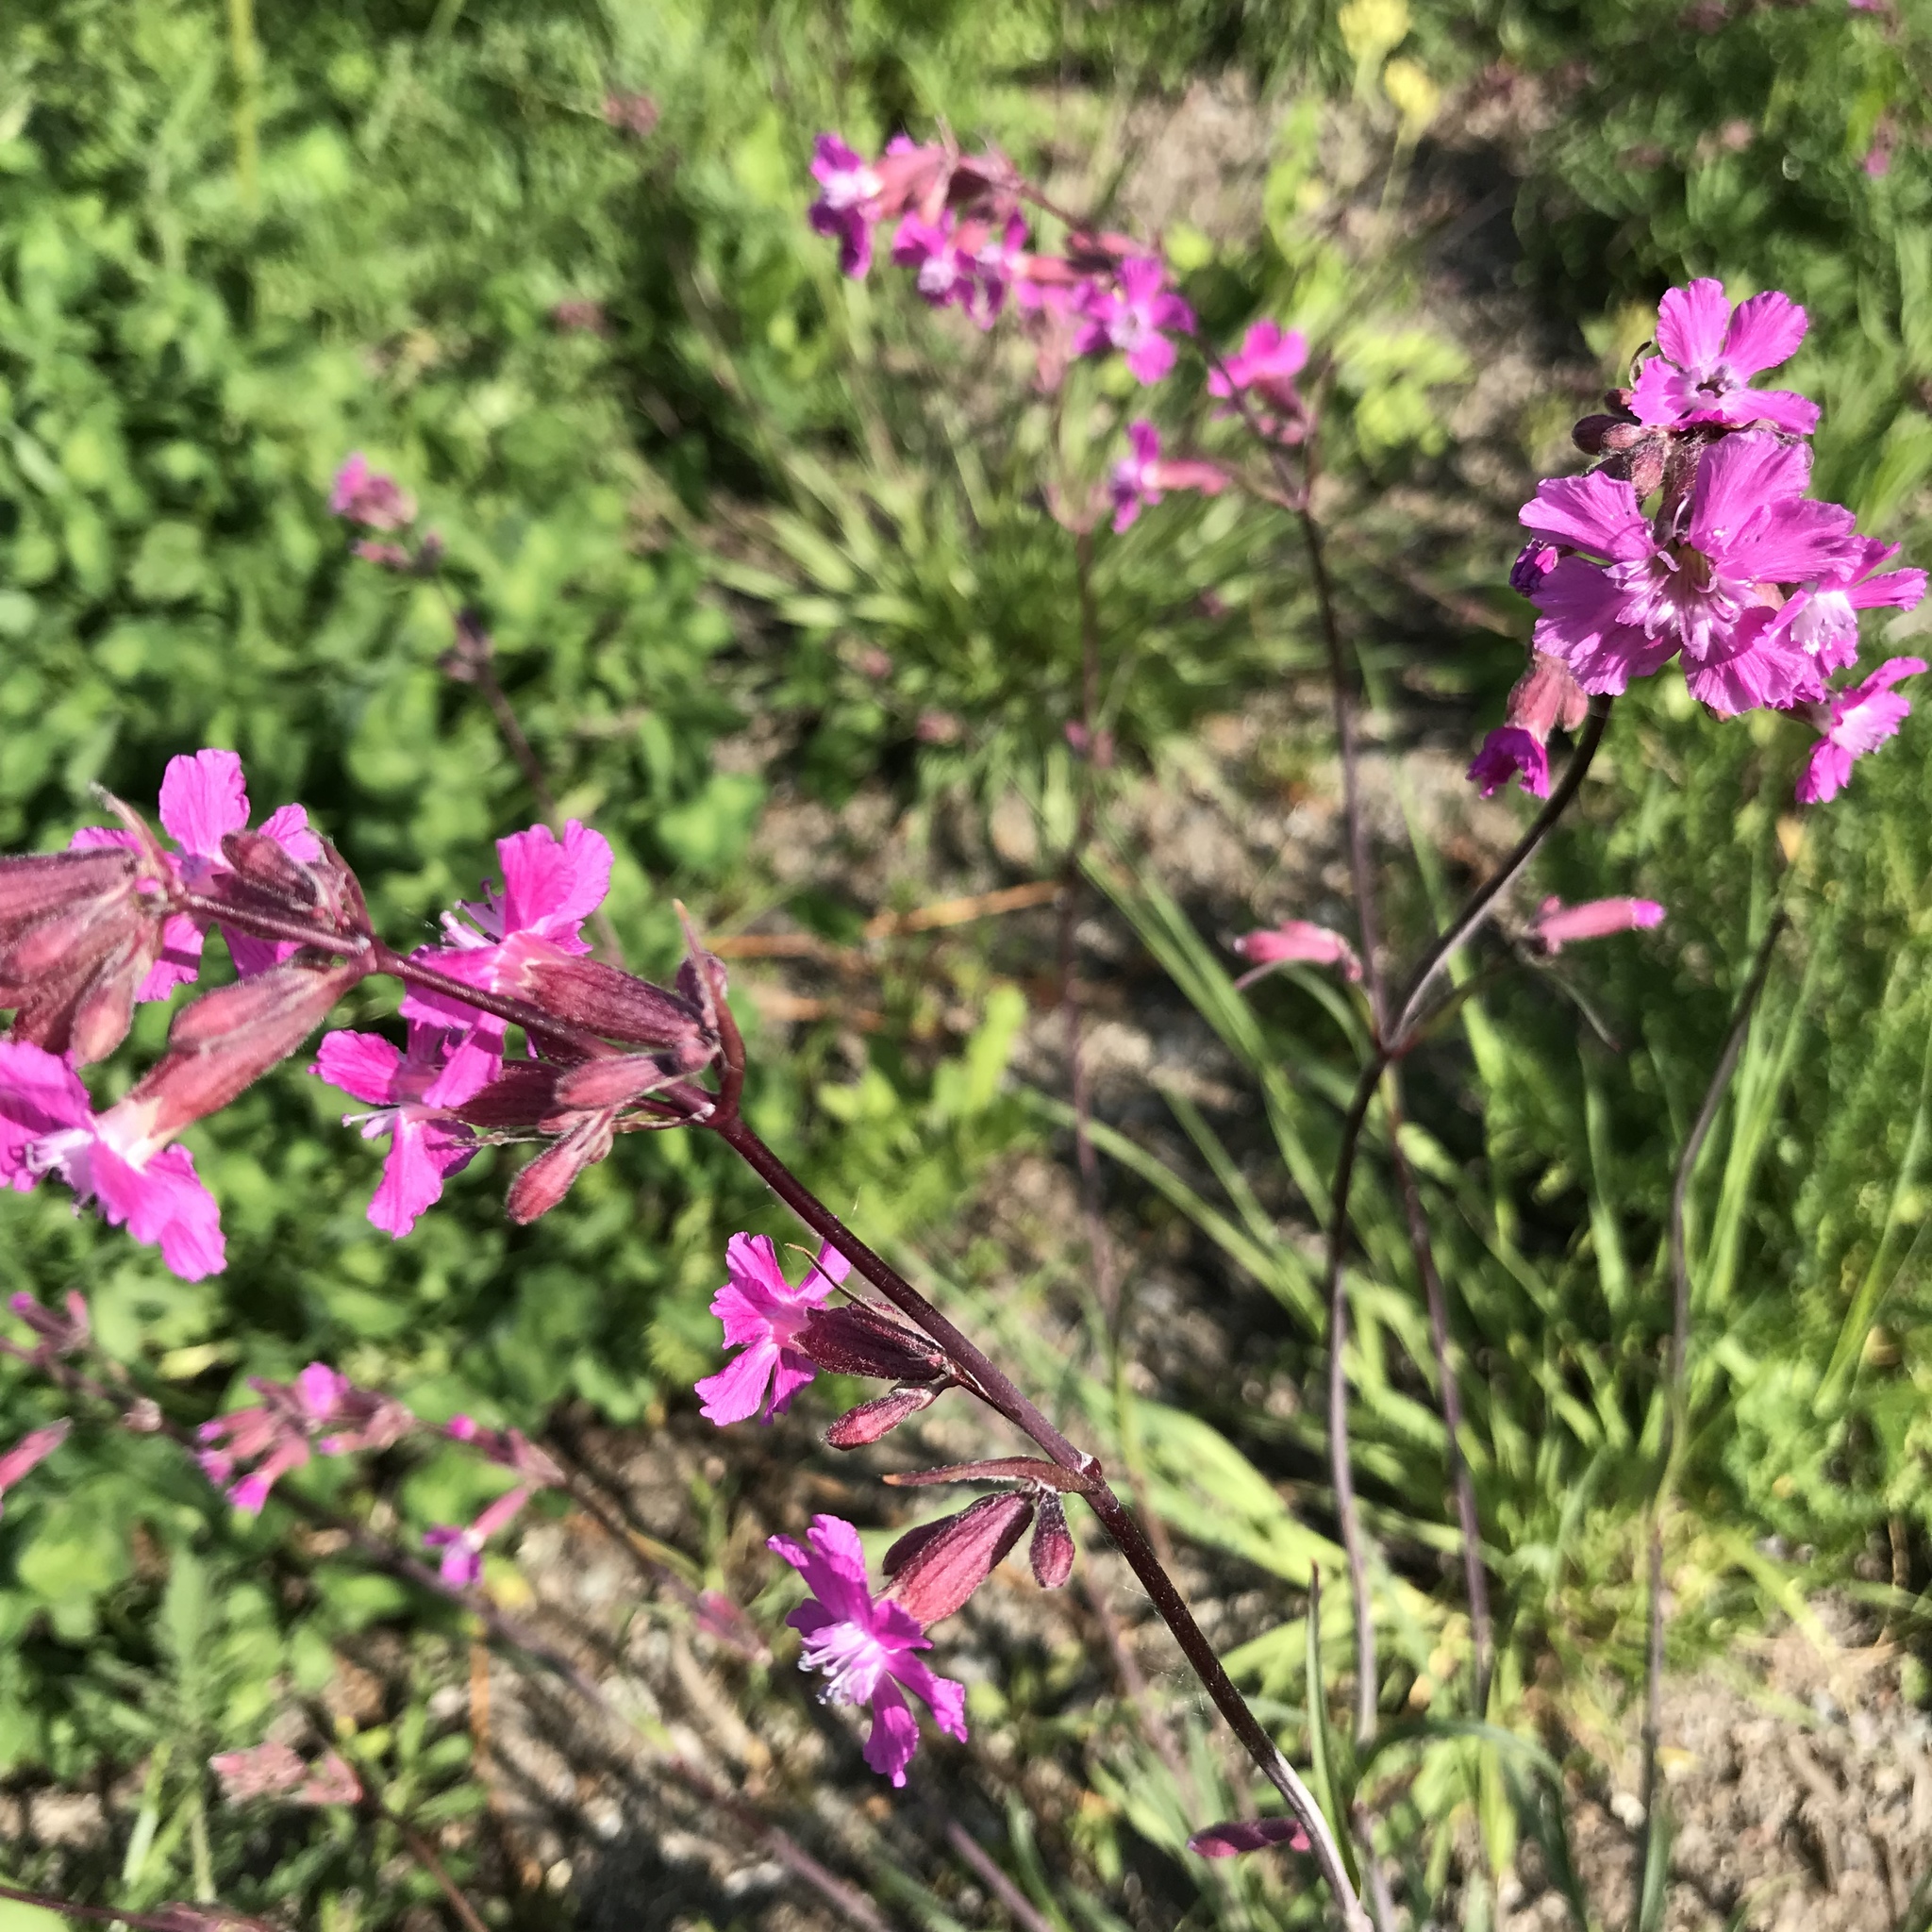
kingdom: Plantae
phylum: Tracheophyta
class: Magnoliopsida
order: Caryophyllales
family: Caryophyllaceae
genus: Viscaria
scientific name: Viscaria vulgaris
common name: Clammy campion
